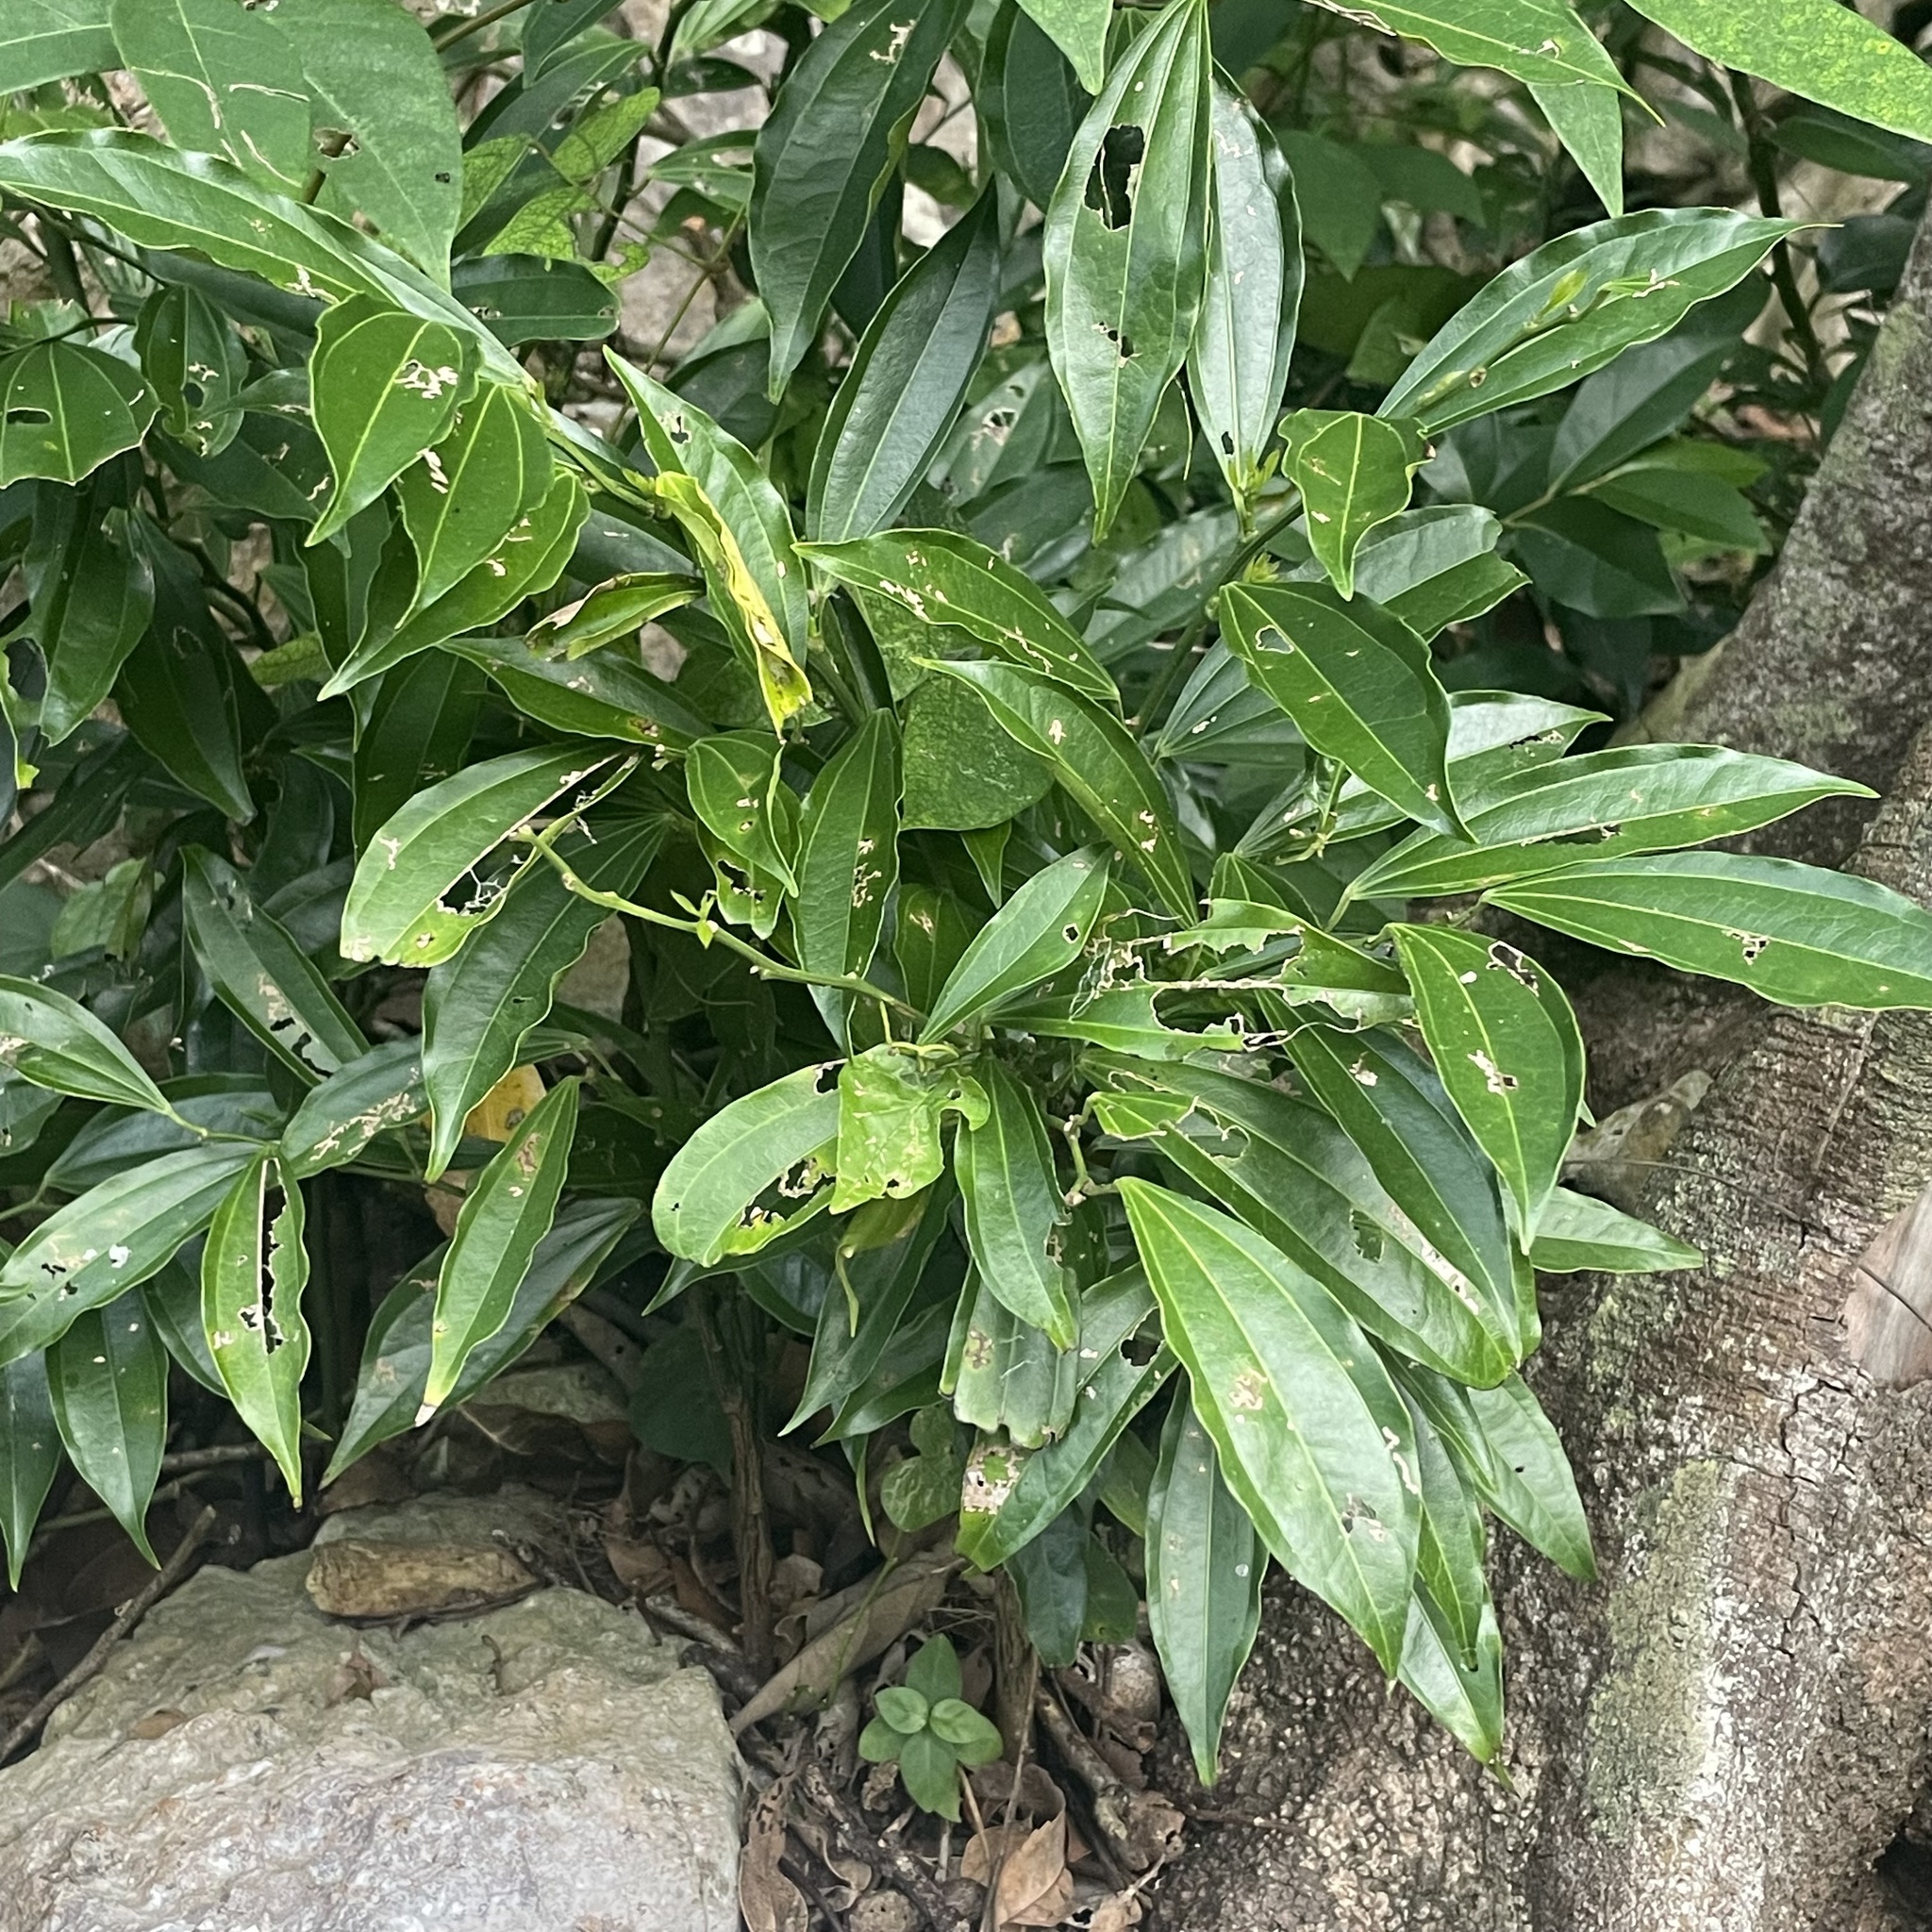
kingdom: Plantae
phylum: Tracheophyta
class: Magnoliopsida
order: Ranunculales
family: Menispermaceae
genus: Cocculus
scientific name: Cocculus laurifolius
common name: Laurel-leaf snailseed
